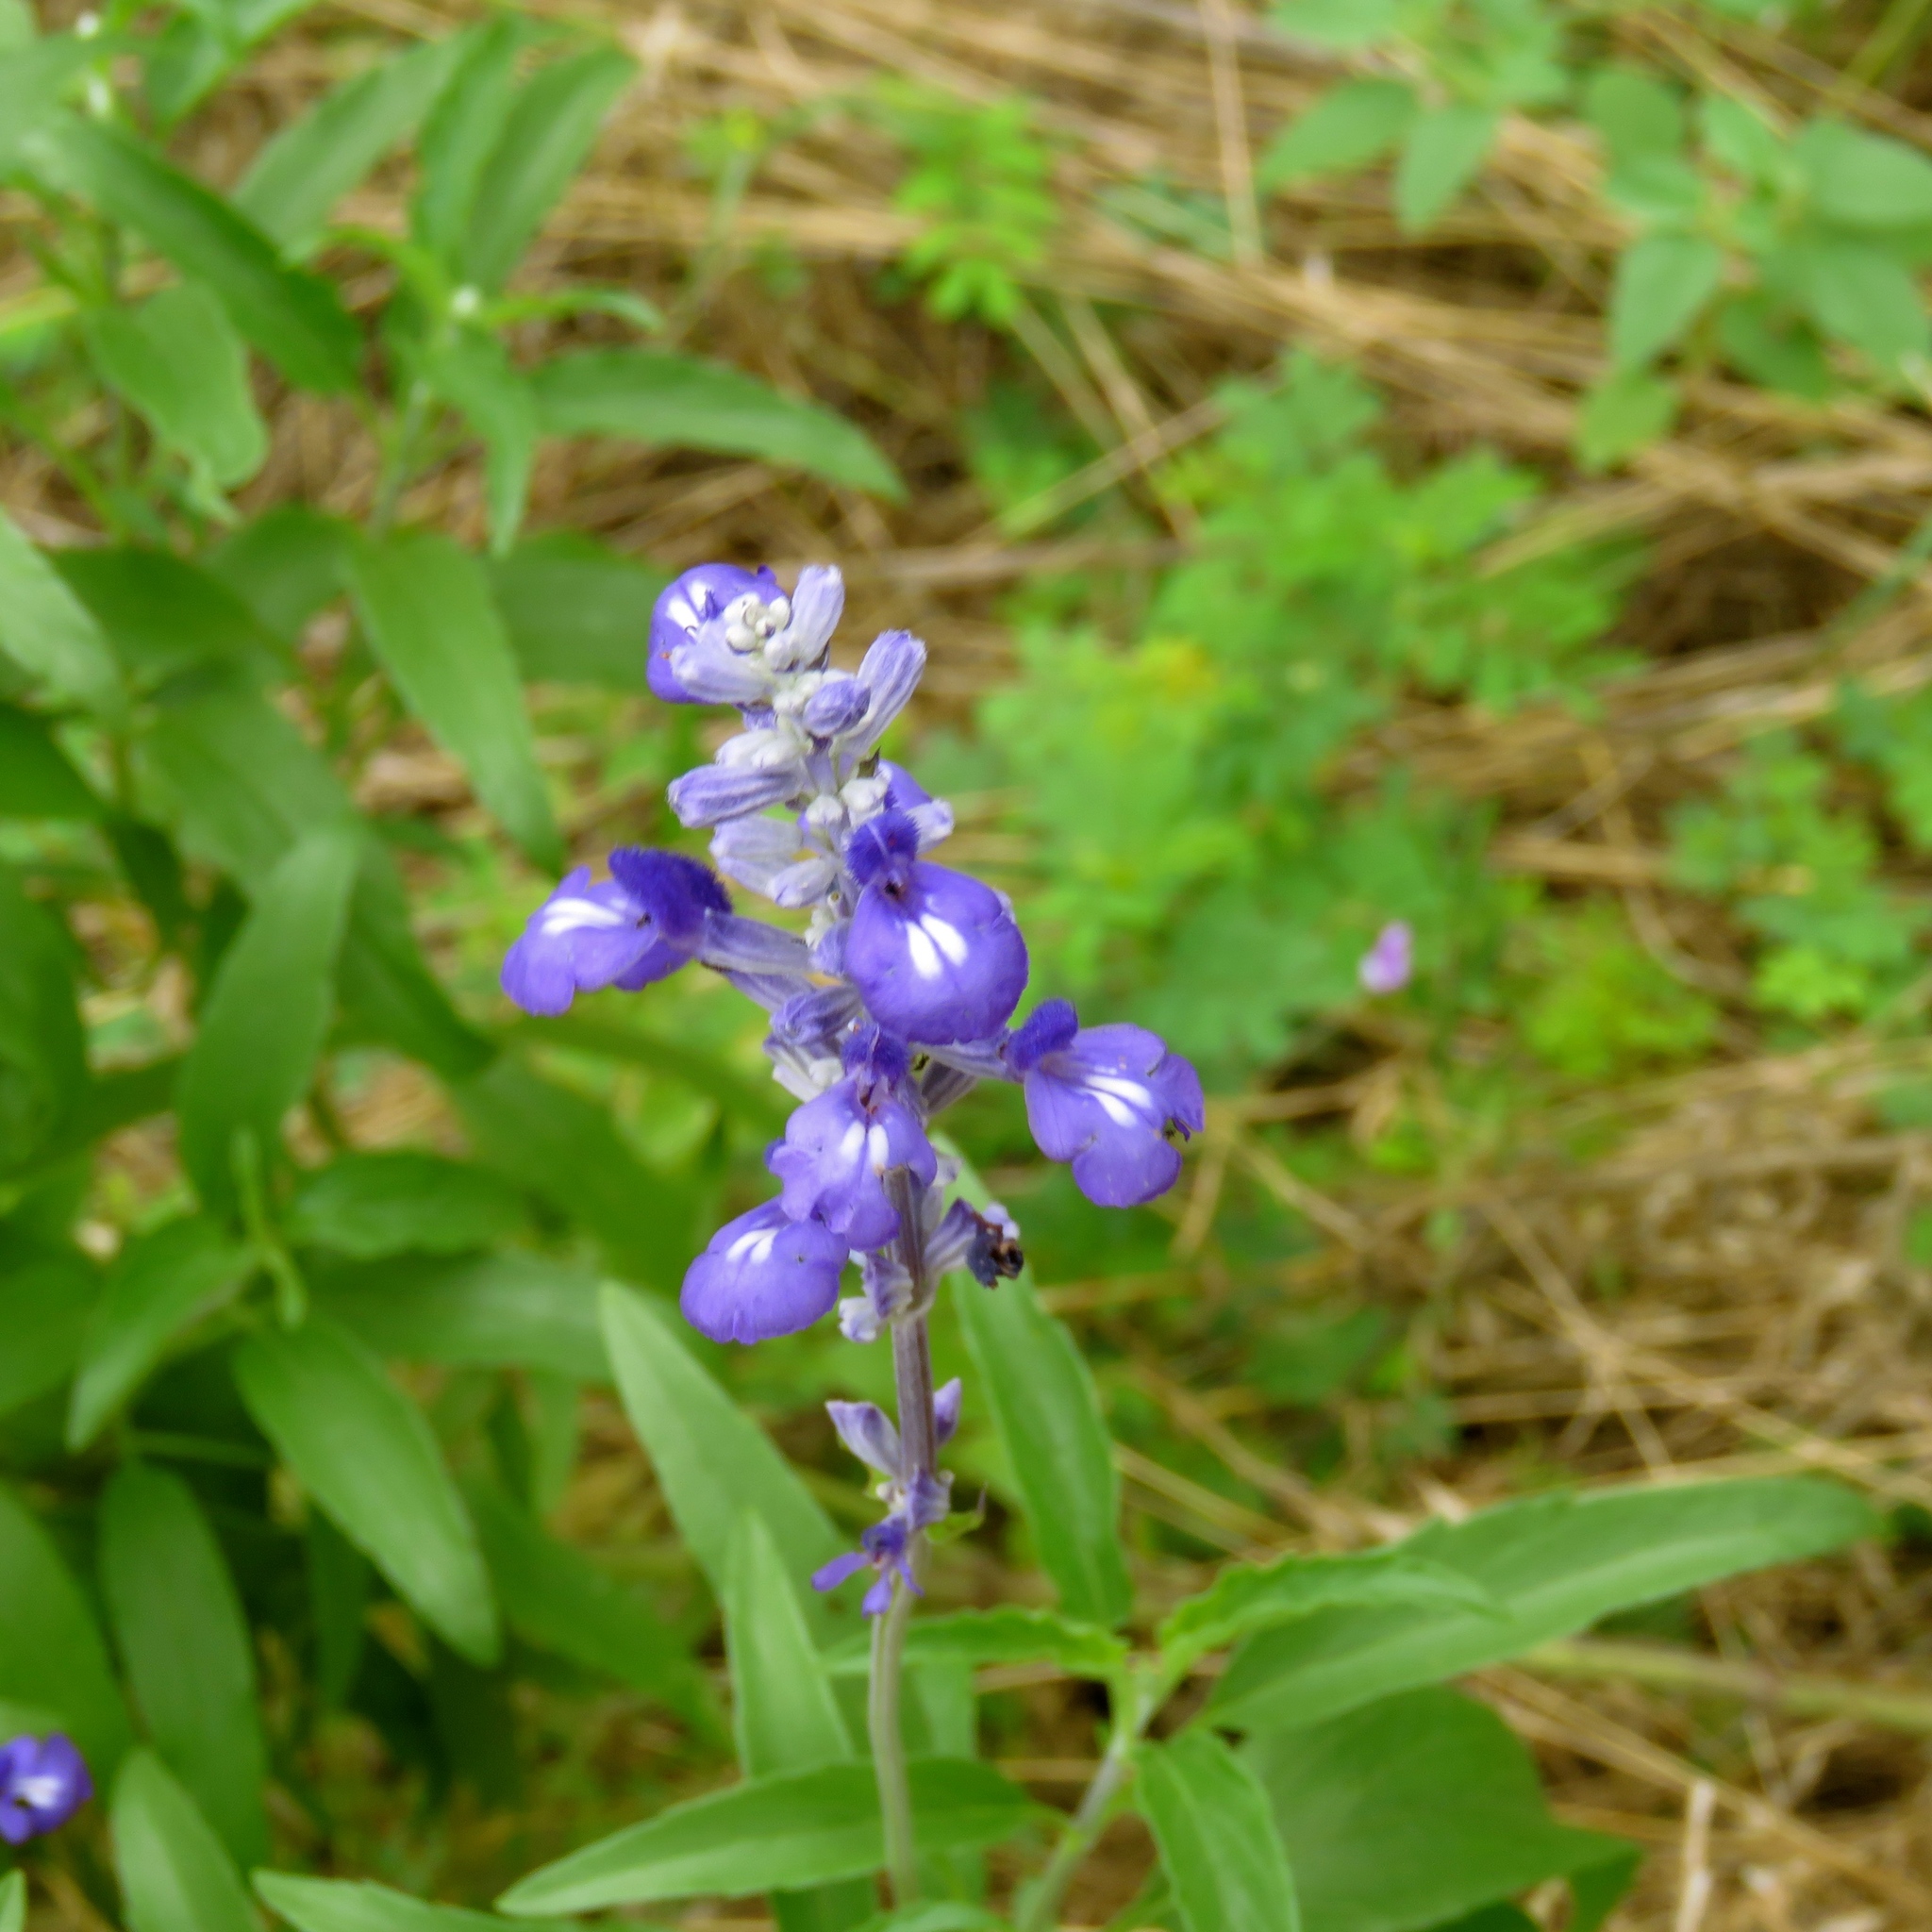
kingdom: Plantae
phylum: Tracheophyta
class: Magnoliopsida
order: Lamiales
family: Lamiaceae
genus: Salvia
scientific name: Salvia farinacea
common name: Mealy sage
